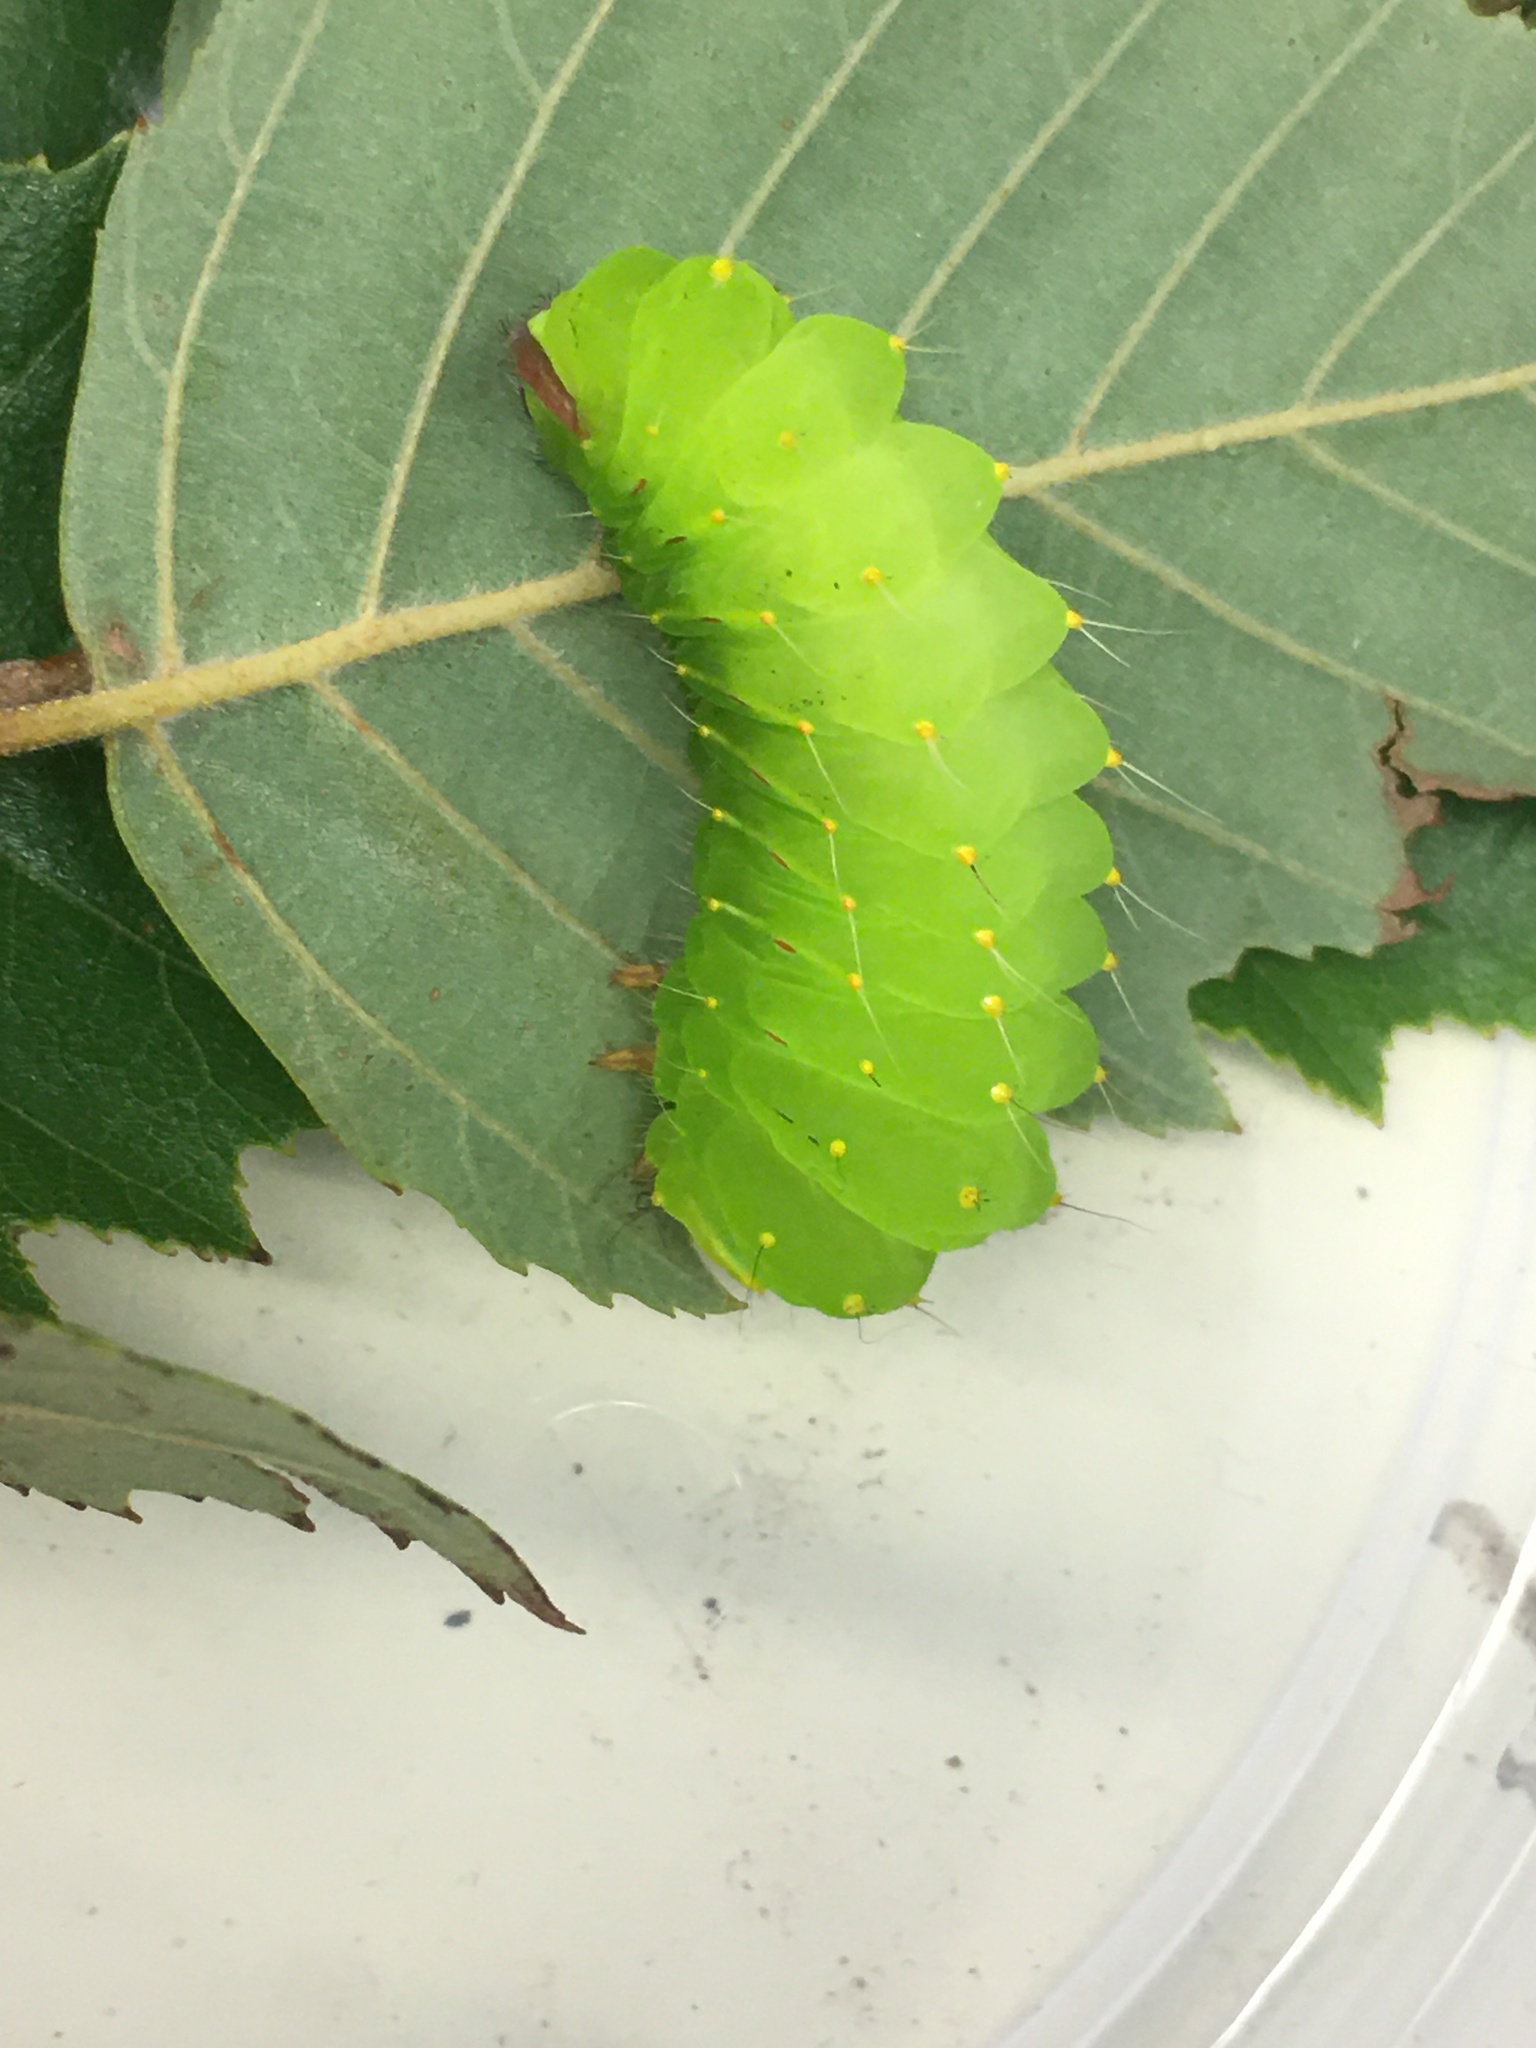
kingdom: Animalia
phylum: Arthropoda
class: Insecta
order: Lepidoptera
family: Saturniidae
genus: Antheraea
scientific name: Antheraea polyphemus
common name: Polyphemus moth
